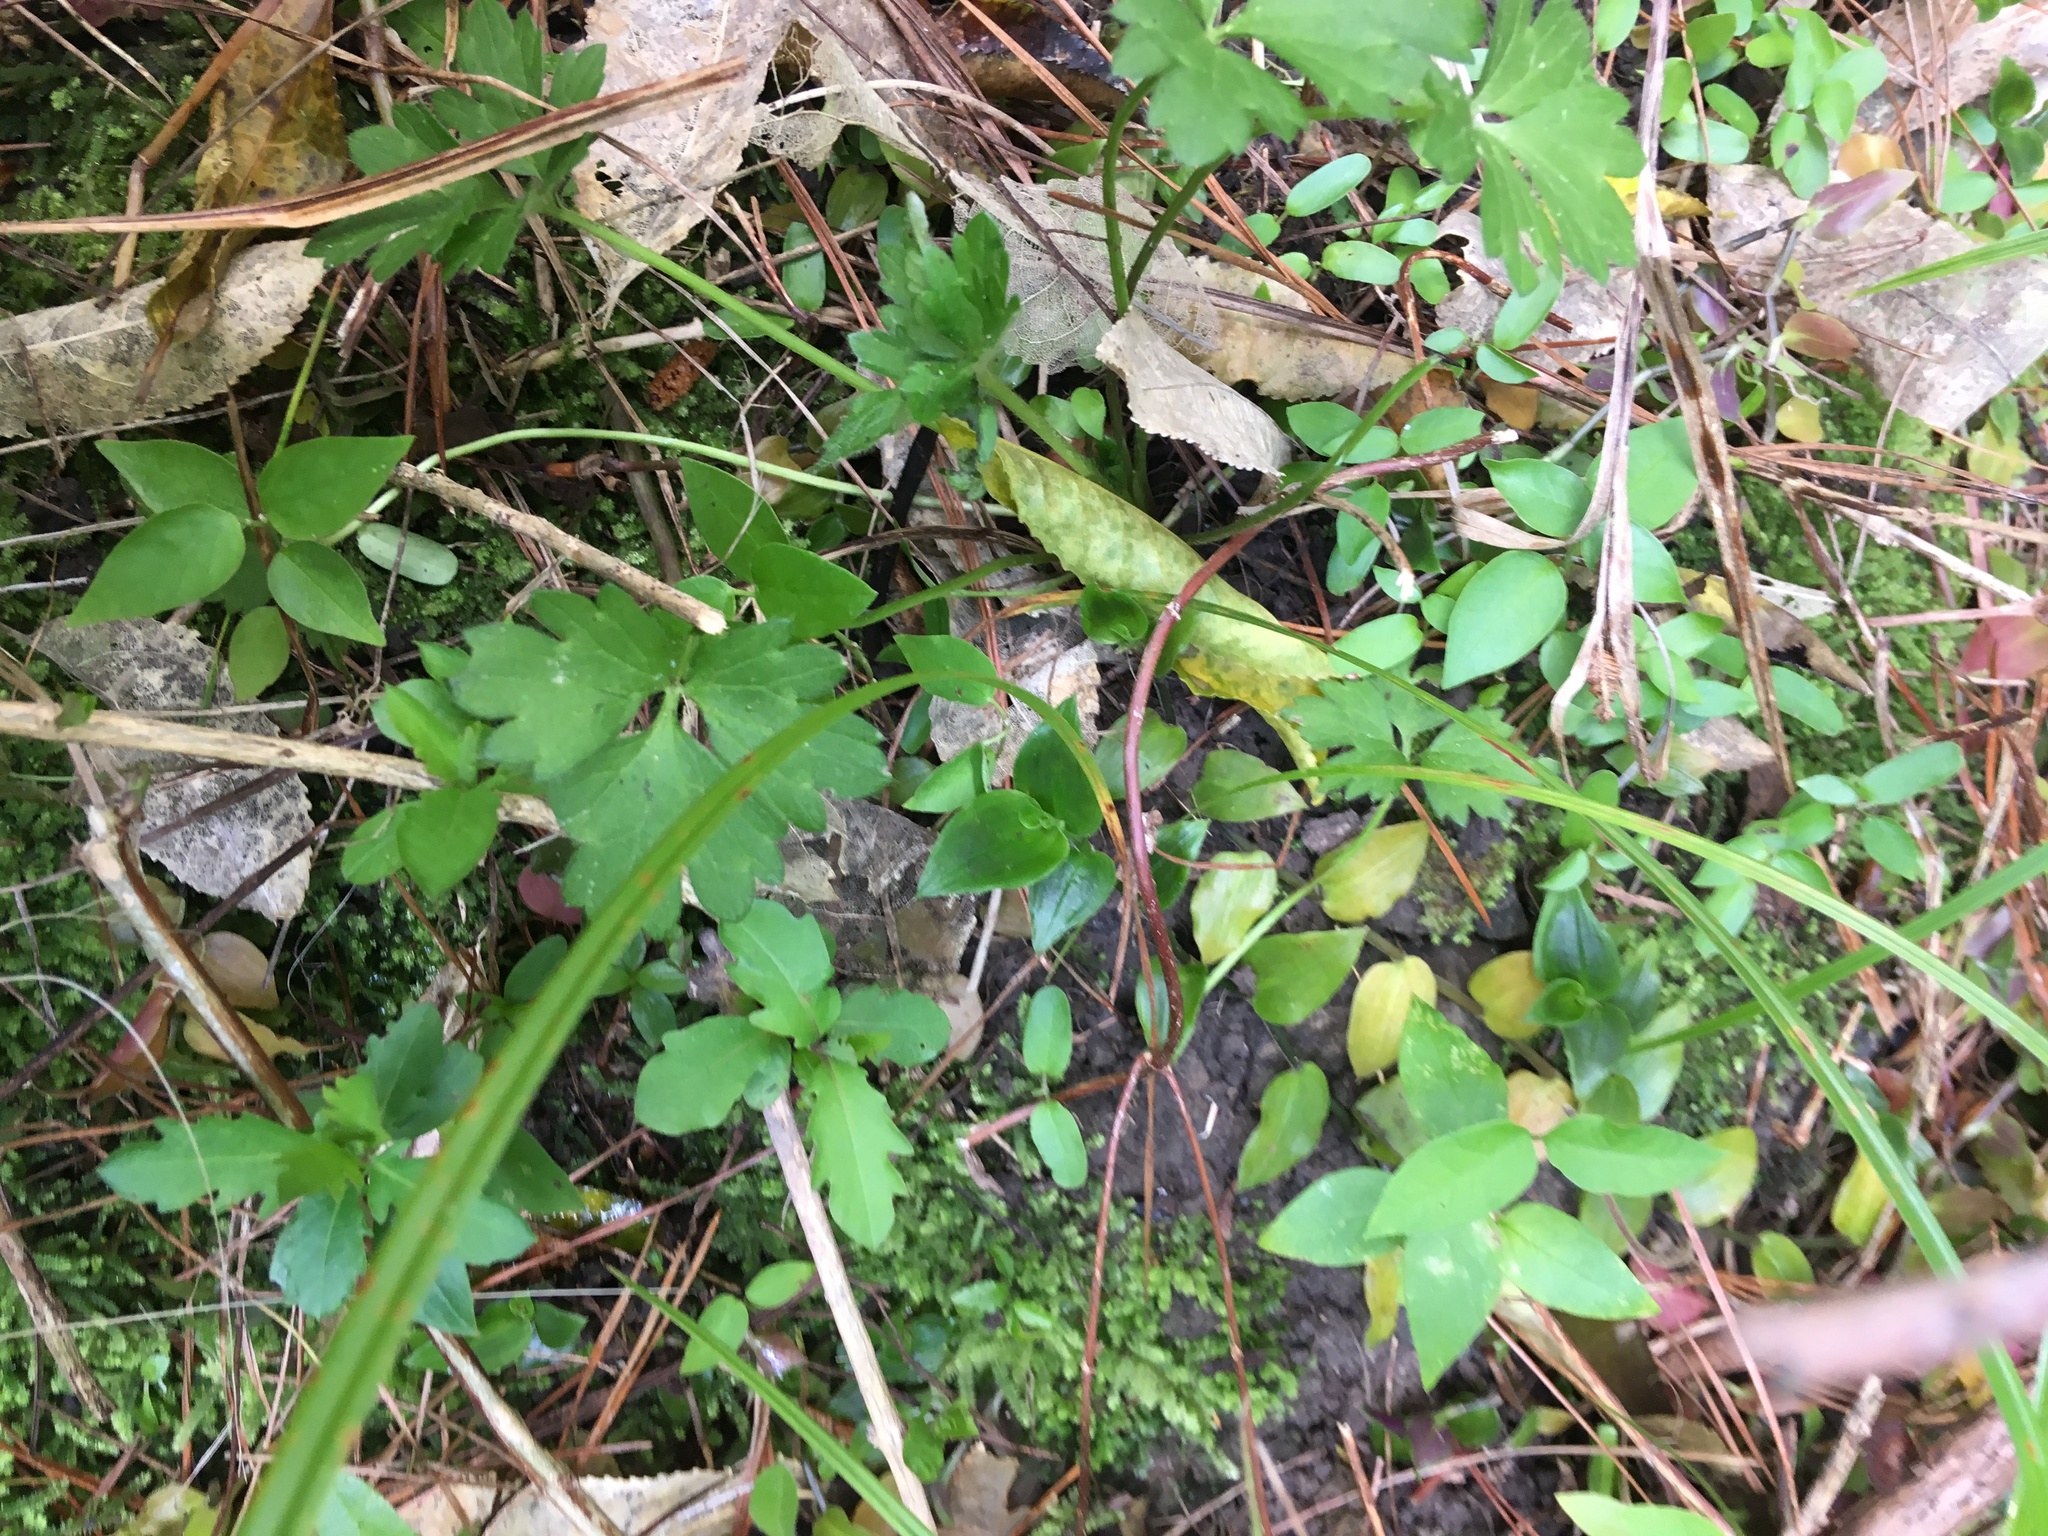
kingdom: Plantae
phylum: Tracheophyta
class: Magnoliopsida
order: Ranunculales
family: Ranunculaceae
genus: Ranunculus
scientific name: Ranunculus repens
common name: Creeping buttercup
